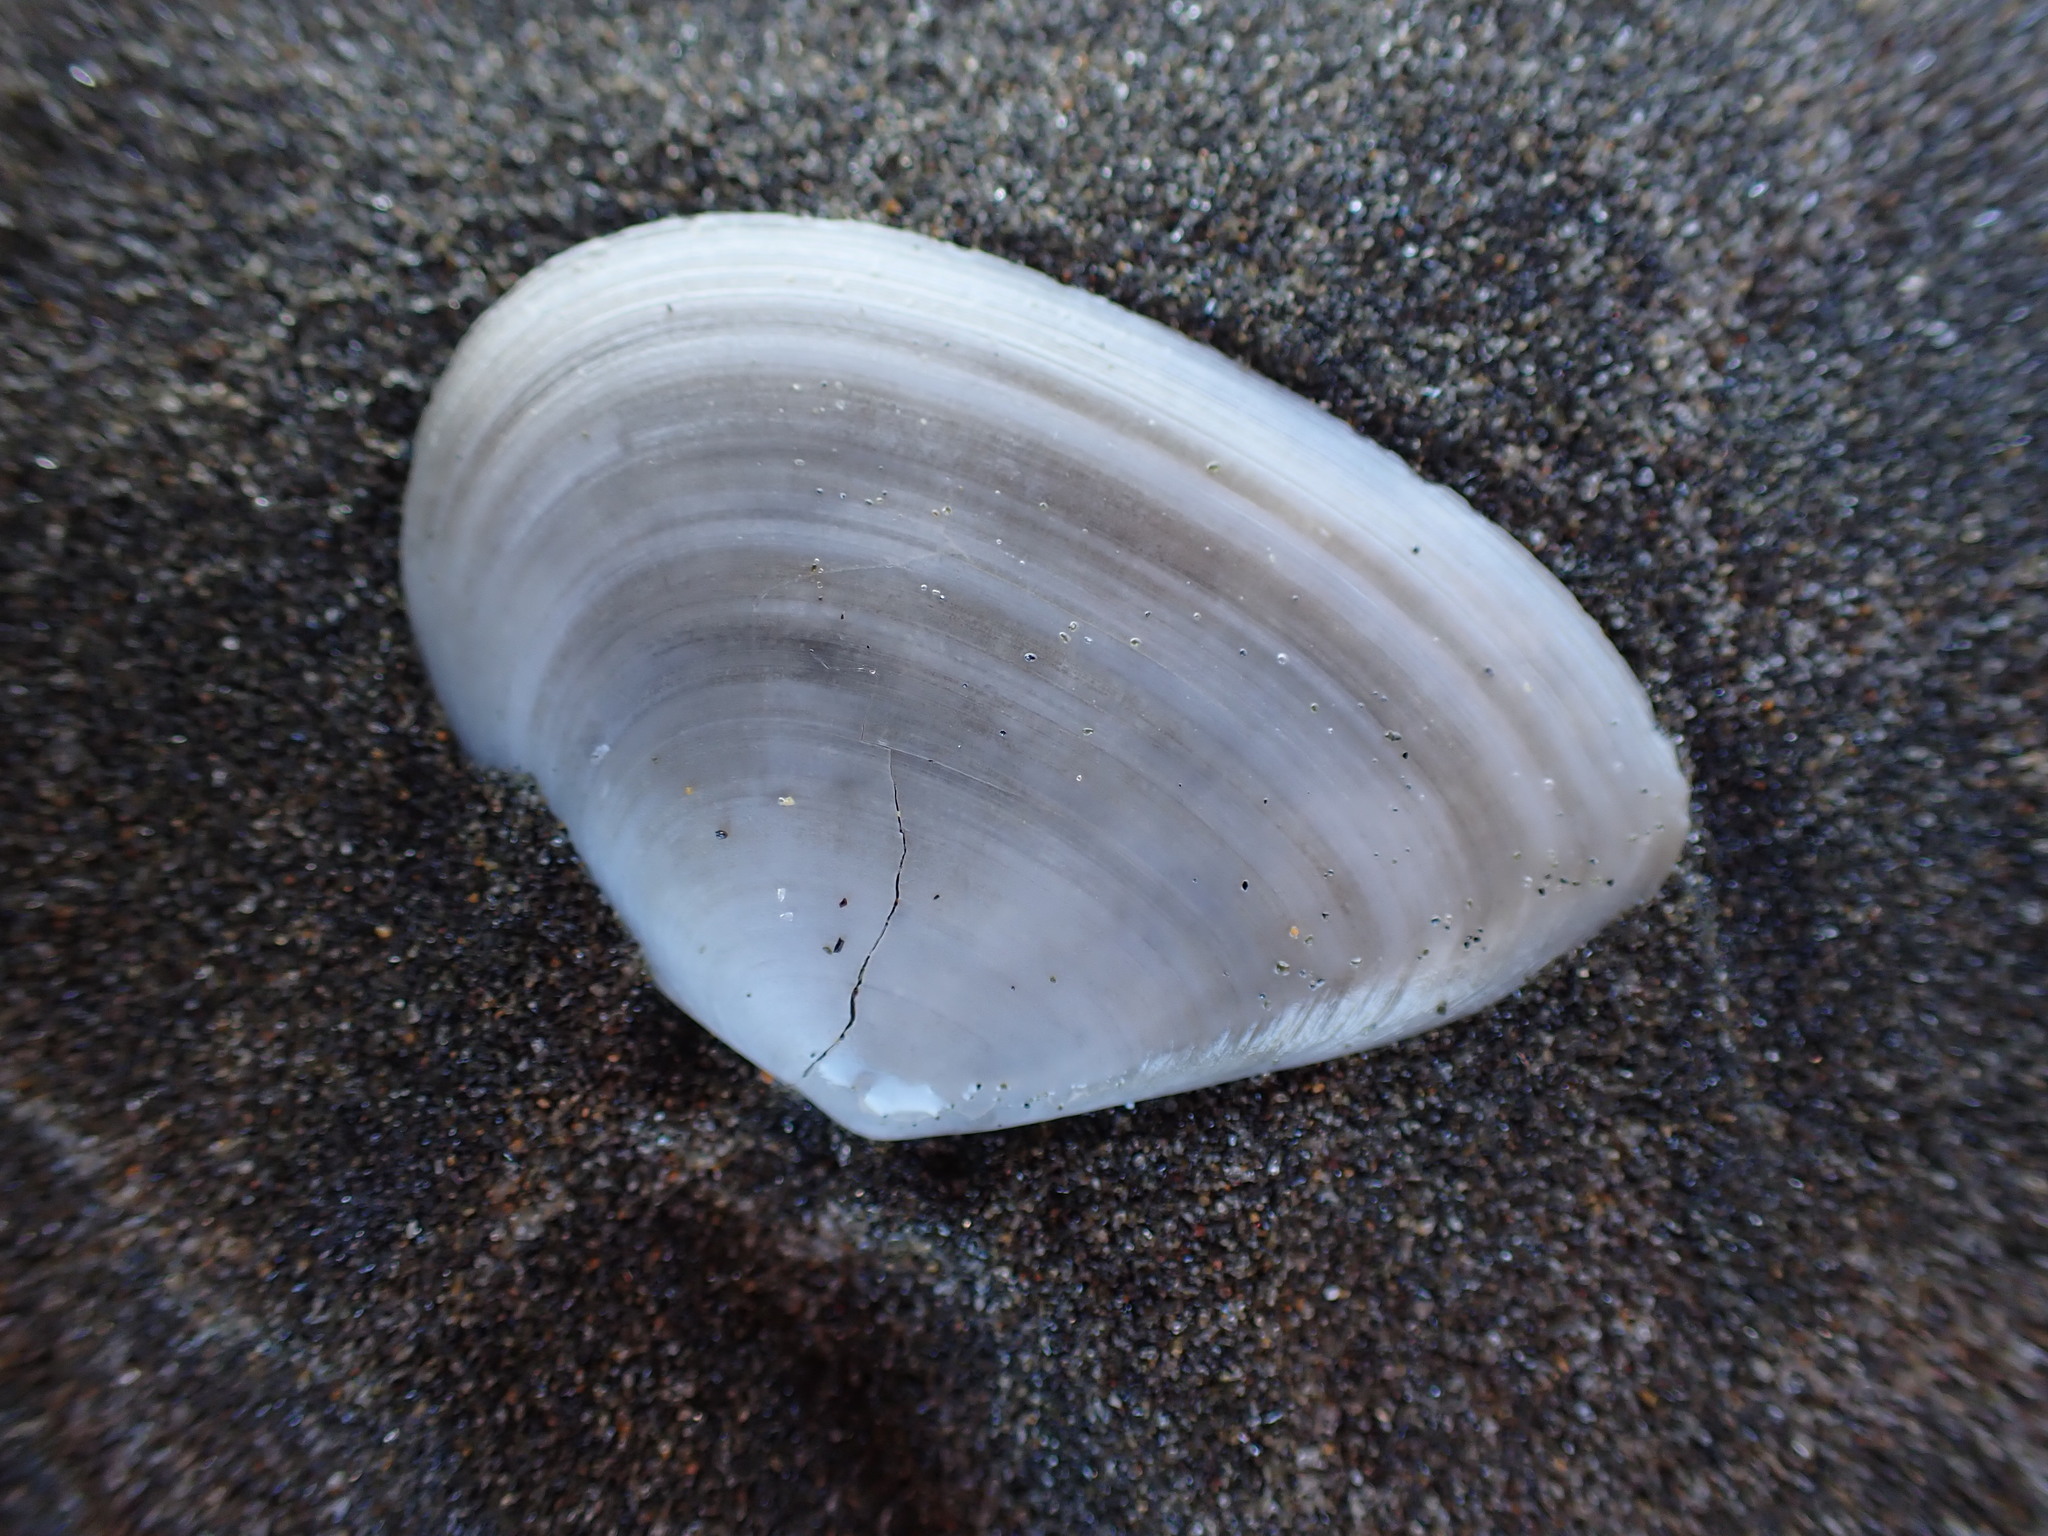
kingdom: Animalia
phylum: Mollusca
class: Bivalvia
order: Cardiida
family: Tellinidae
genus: Bartschicoma
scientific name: Bartschicoma edgari
